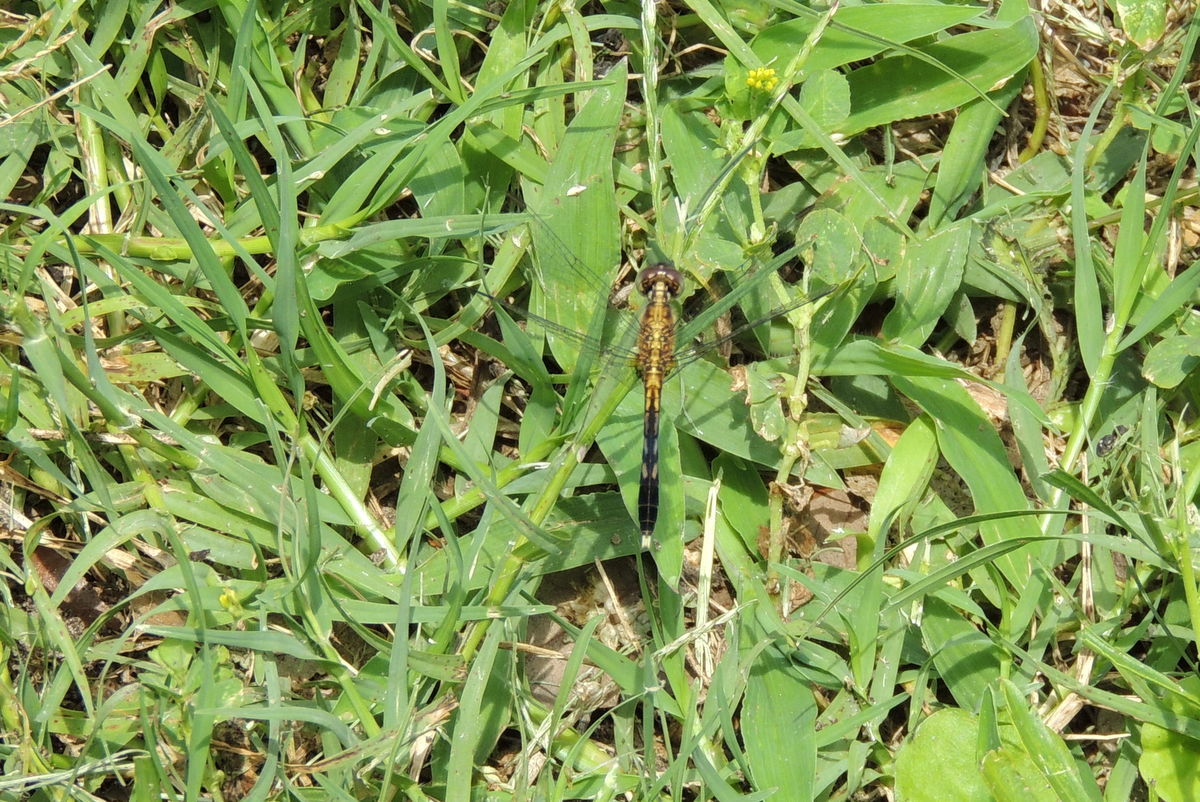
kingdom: Animalia
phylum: Arthropoda
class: Insecta
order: Odonata
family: Libellulidae
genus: Erythrodiplax
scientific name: Erythrodiplax minuscula
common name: Little blue dragonlet
